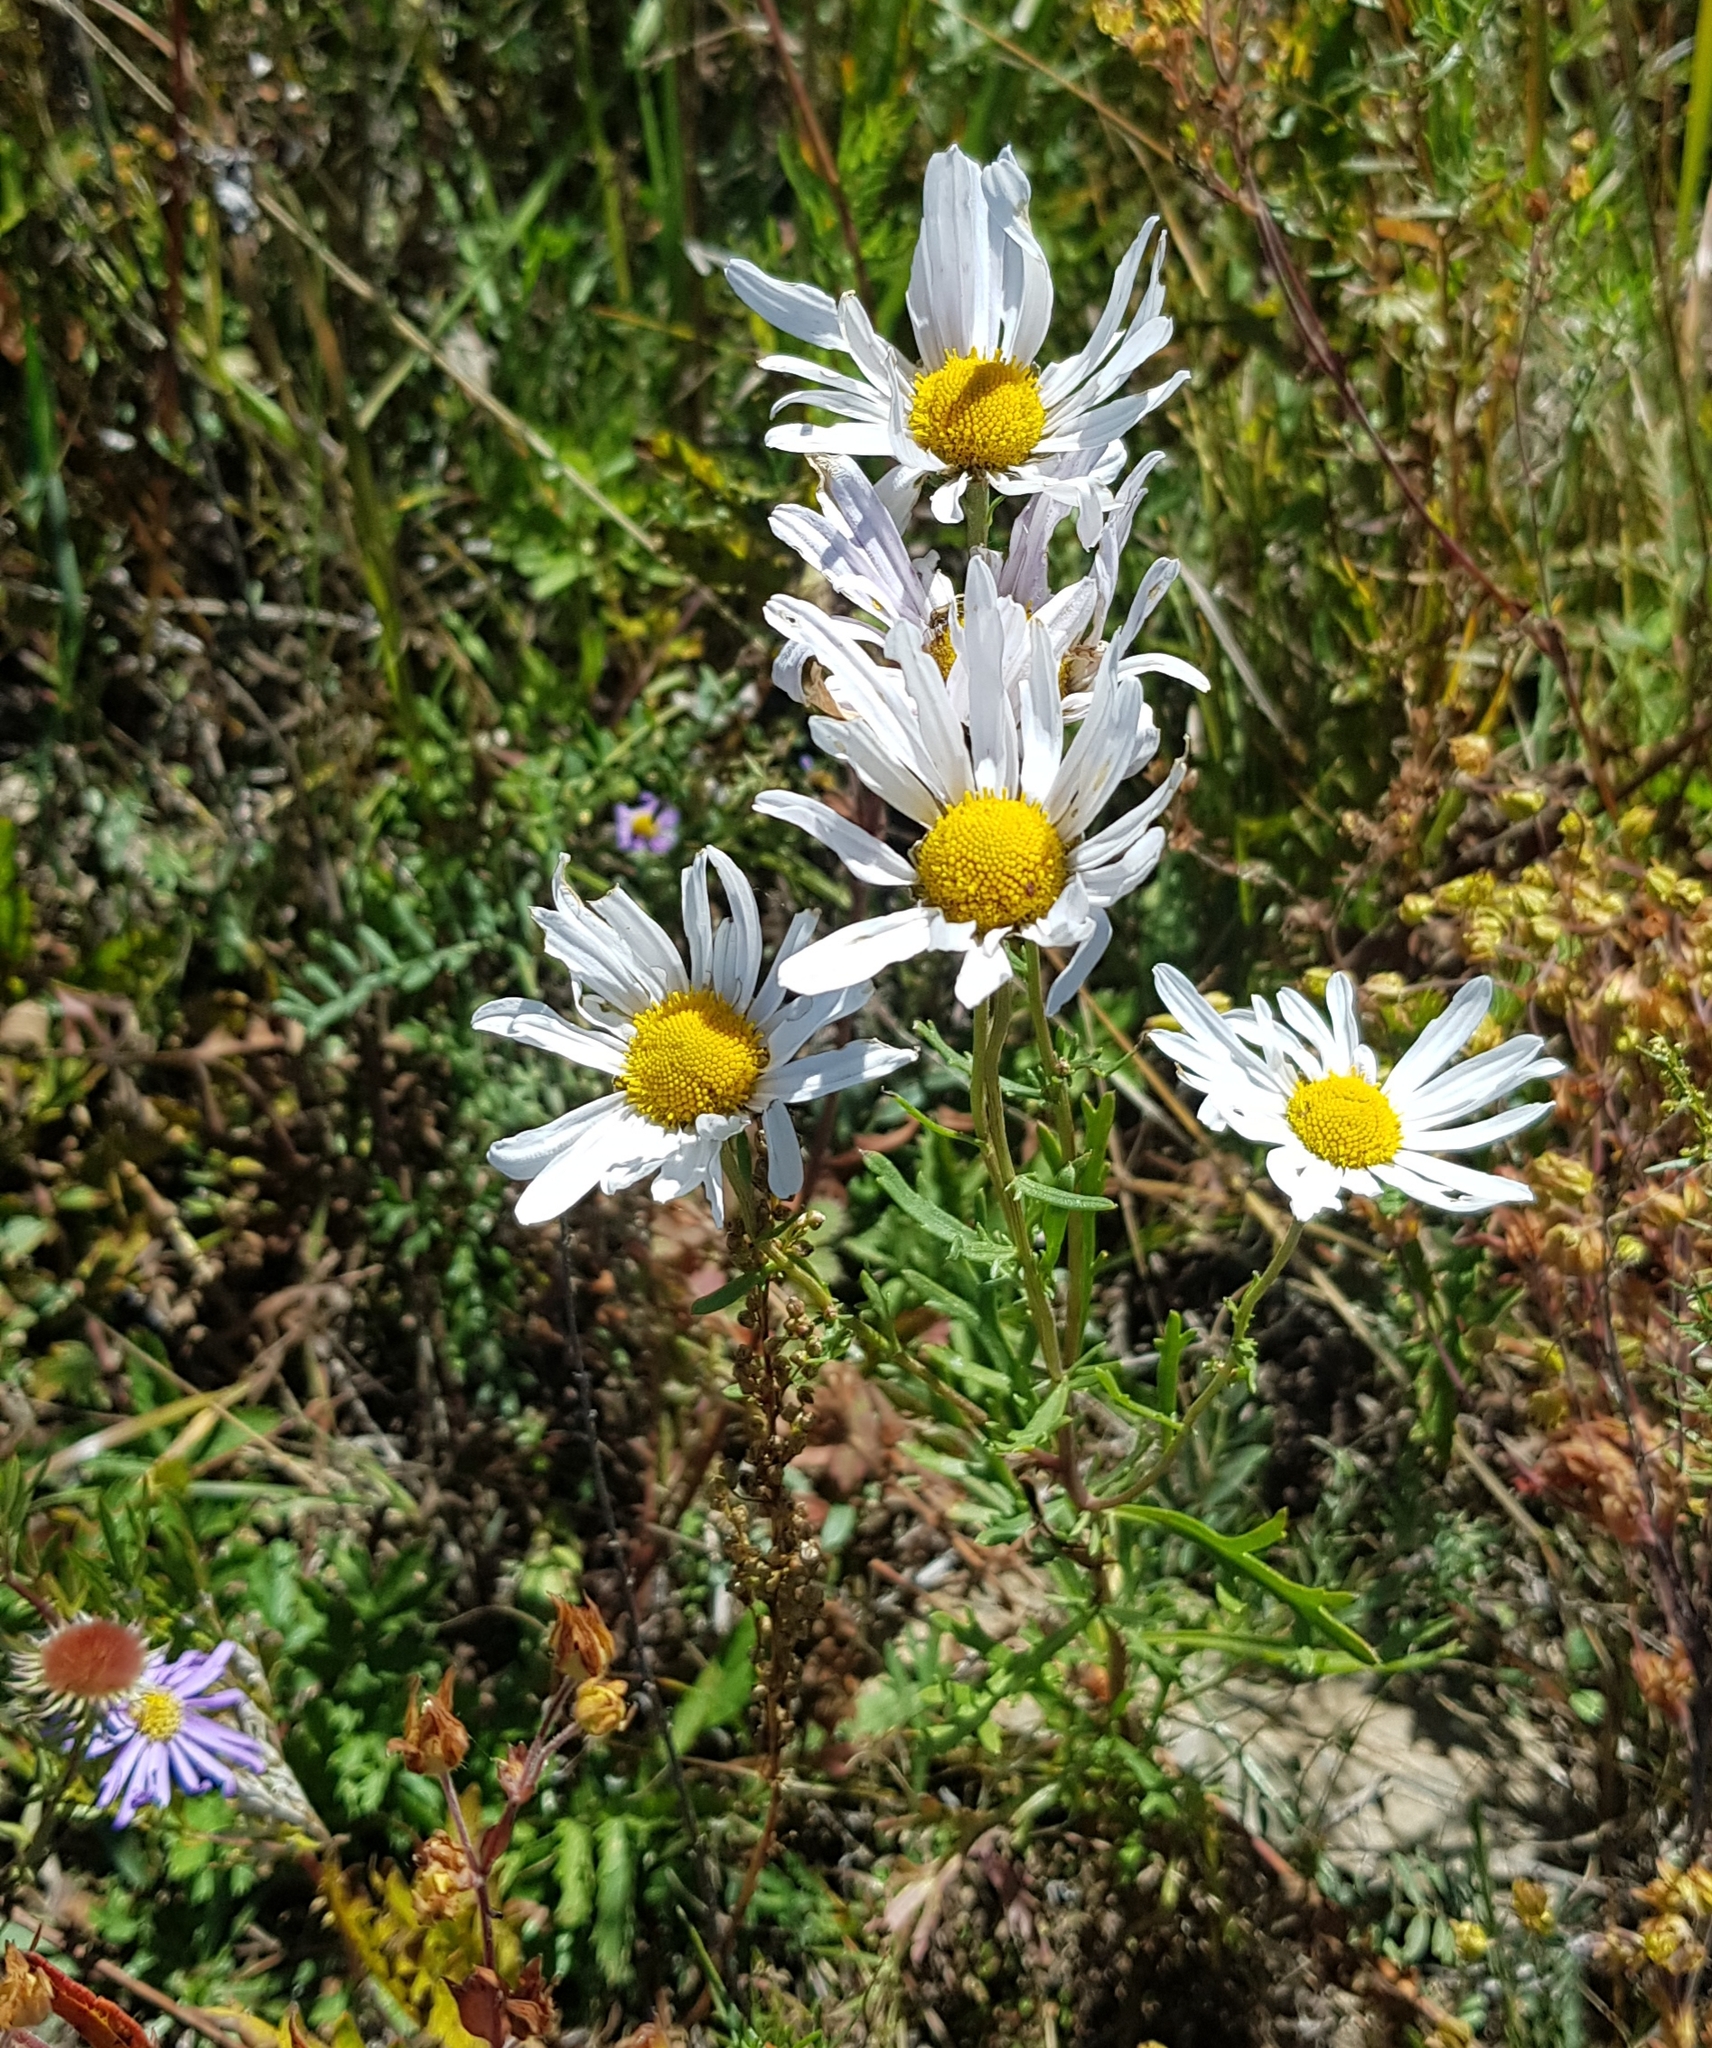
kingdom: Plantae
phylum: Tracheophyta
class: Magnoliopsida
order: Asterales
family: Asteraceae
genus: Chrysanthemum
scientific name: Chrysanthemum zawadzkii
